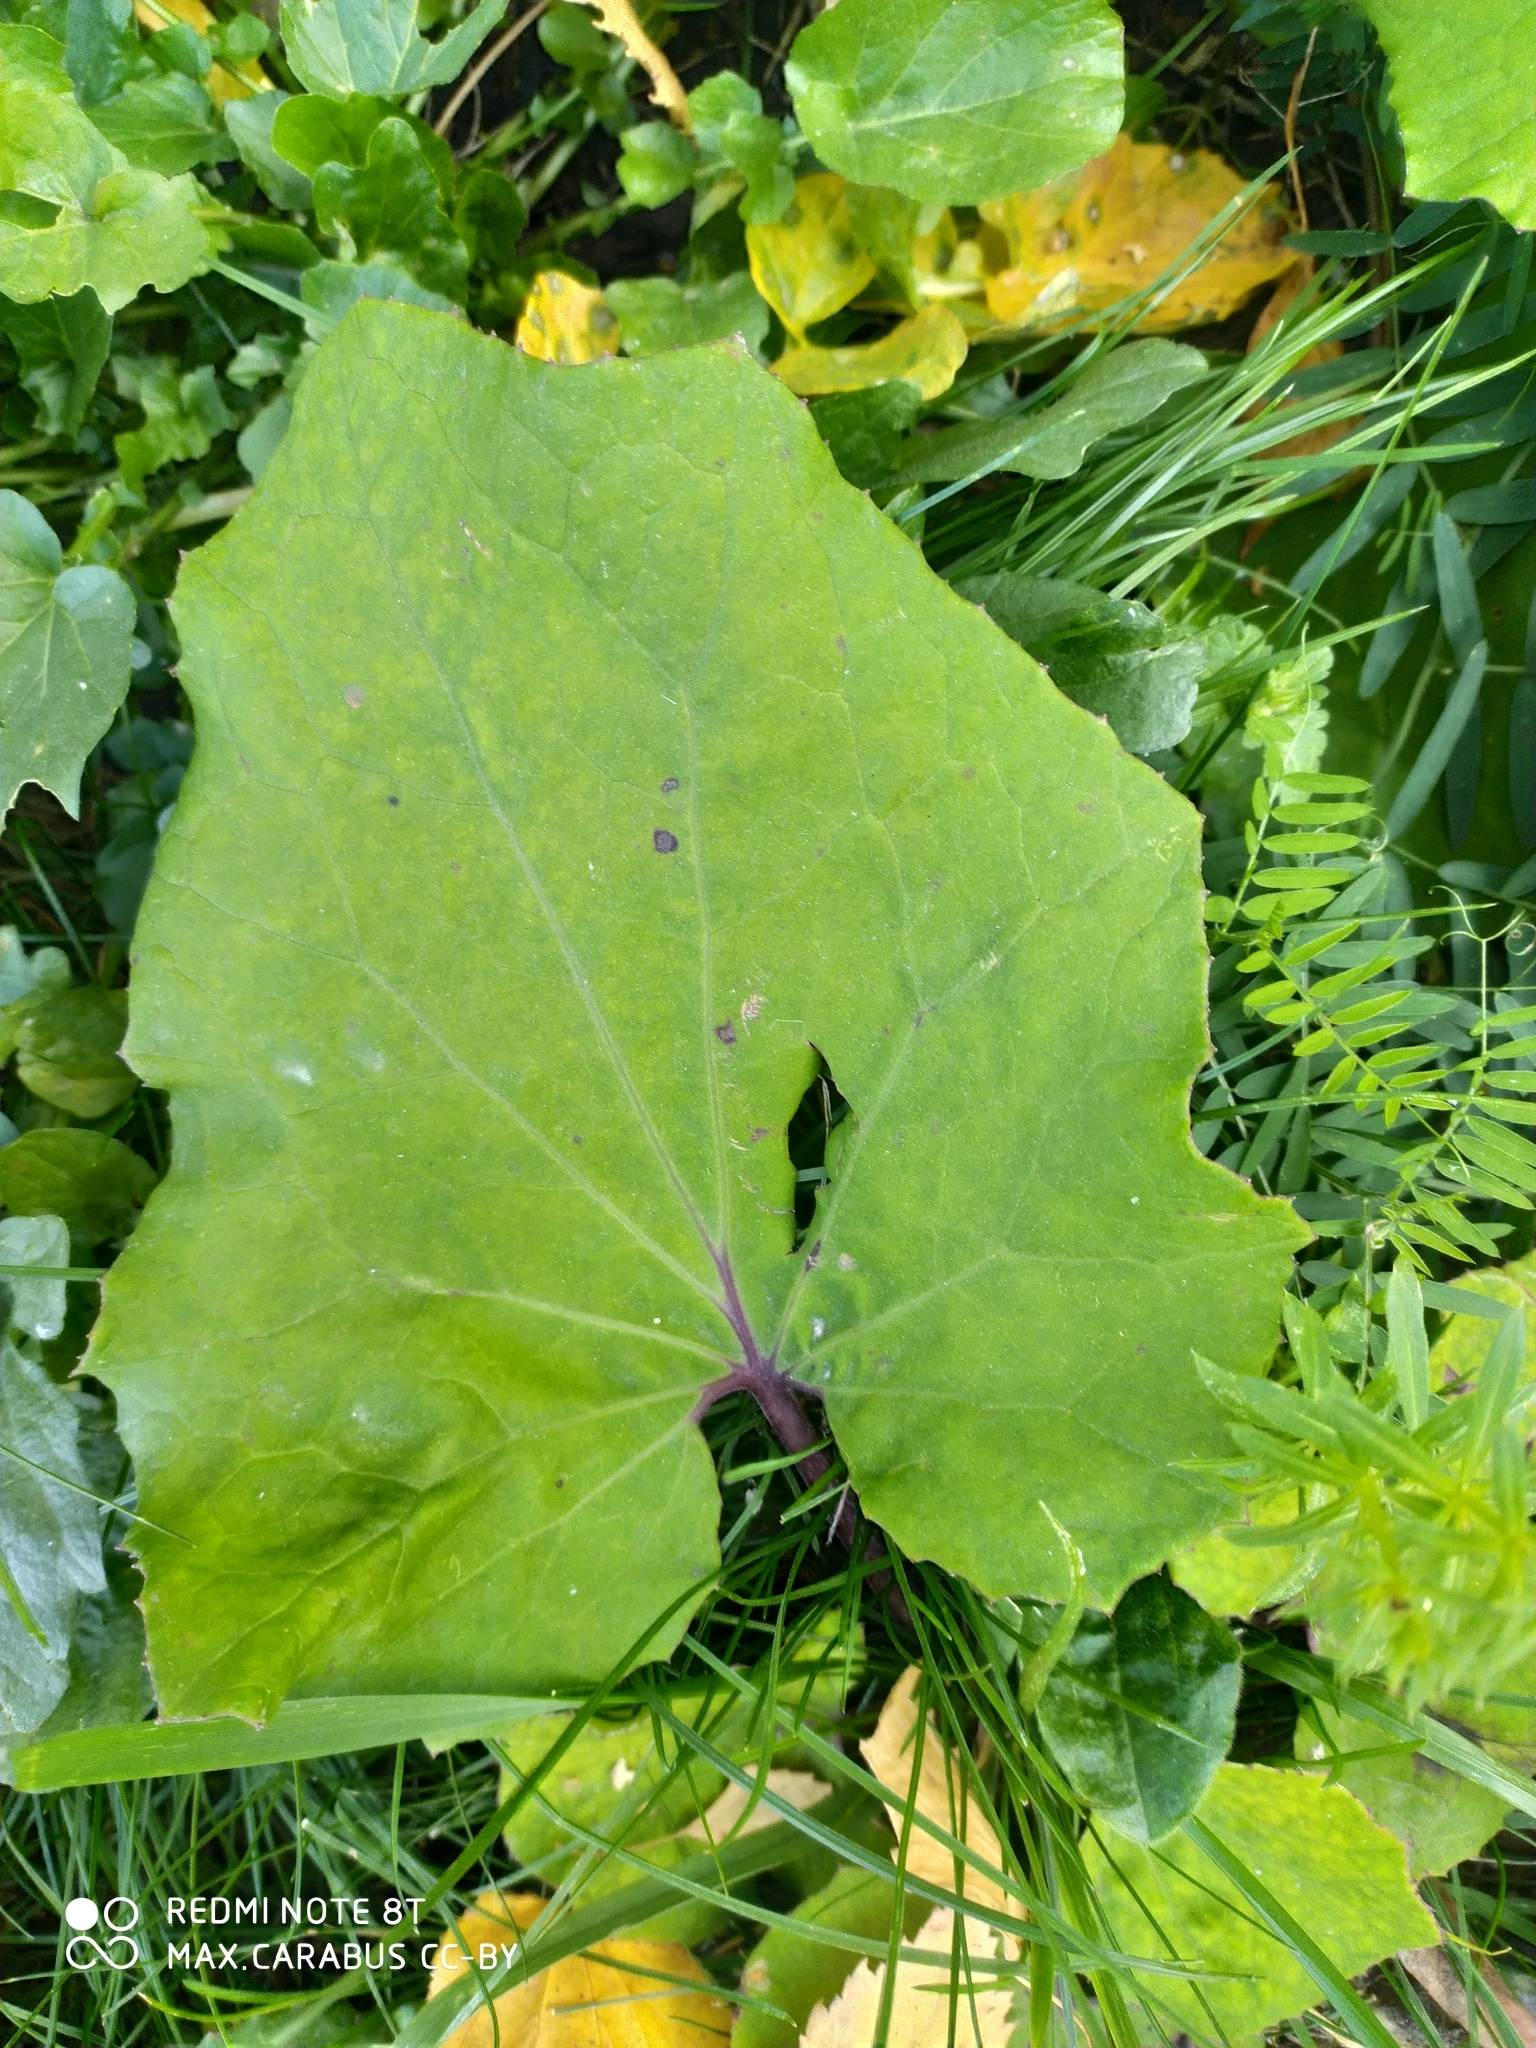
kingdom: Plantae
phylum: Tracheophyta
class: Magnoliopsida
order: Asterales
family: Asteraceae
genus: Tussilago
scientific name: Tussilago farfara
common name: Coltsfoot
